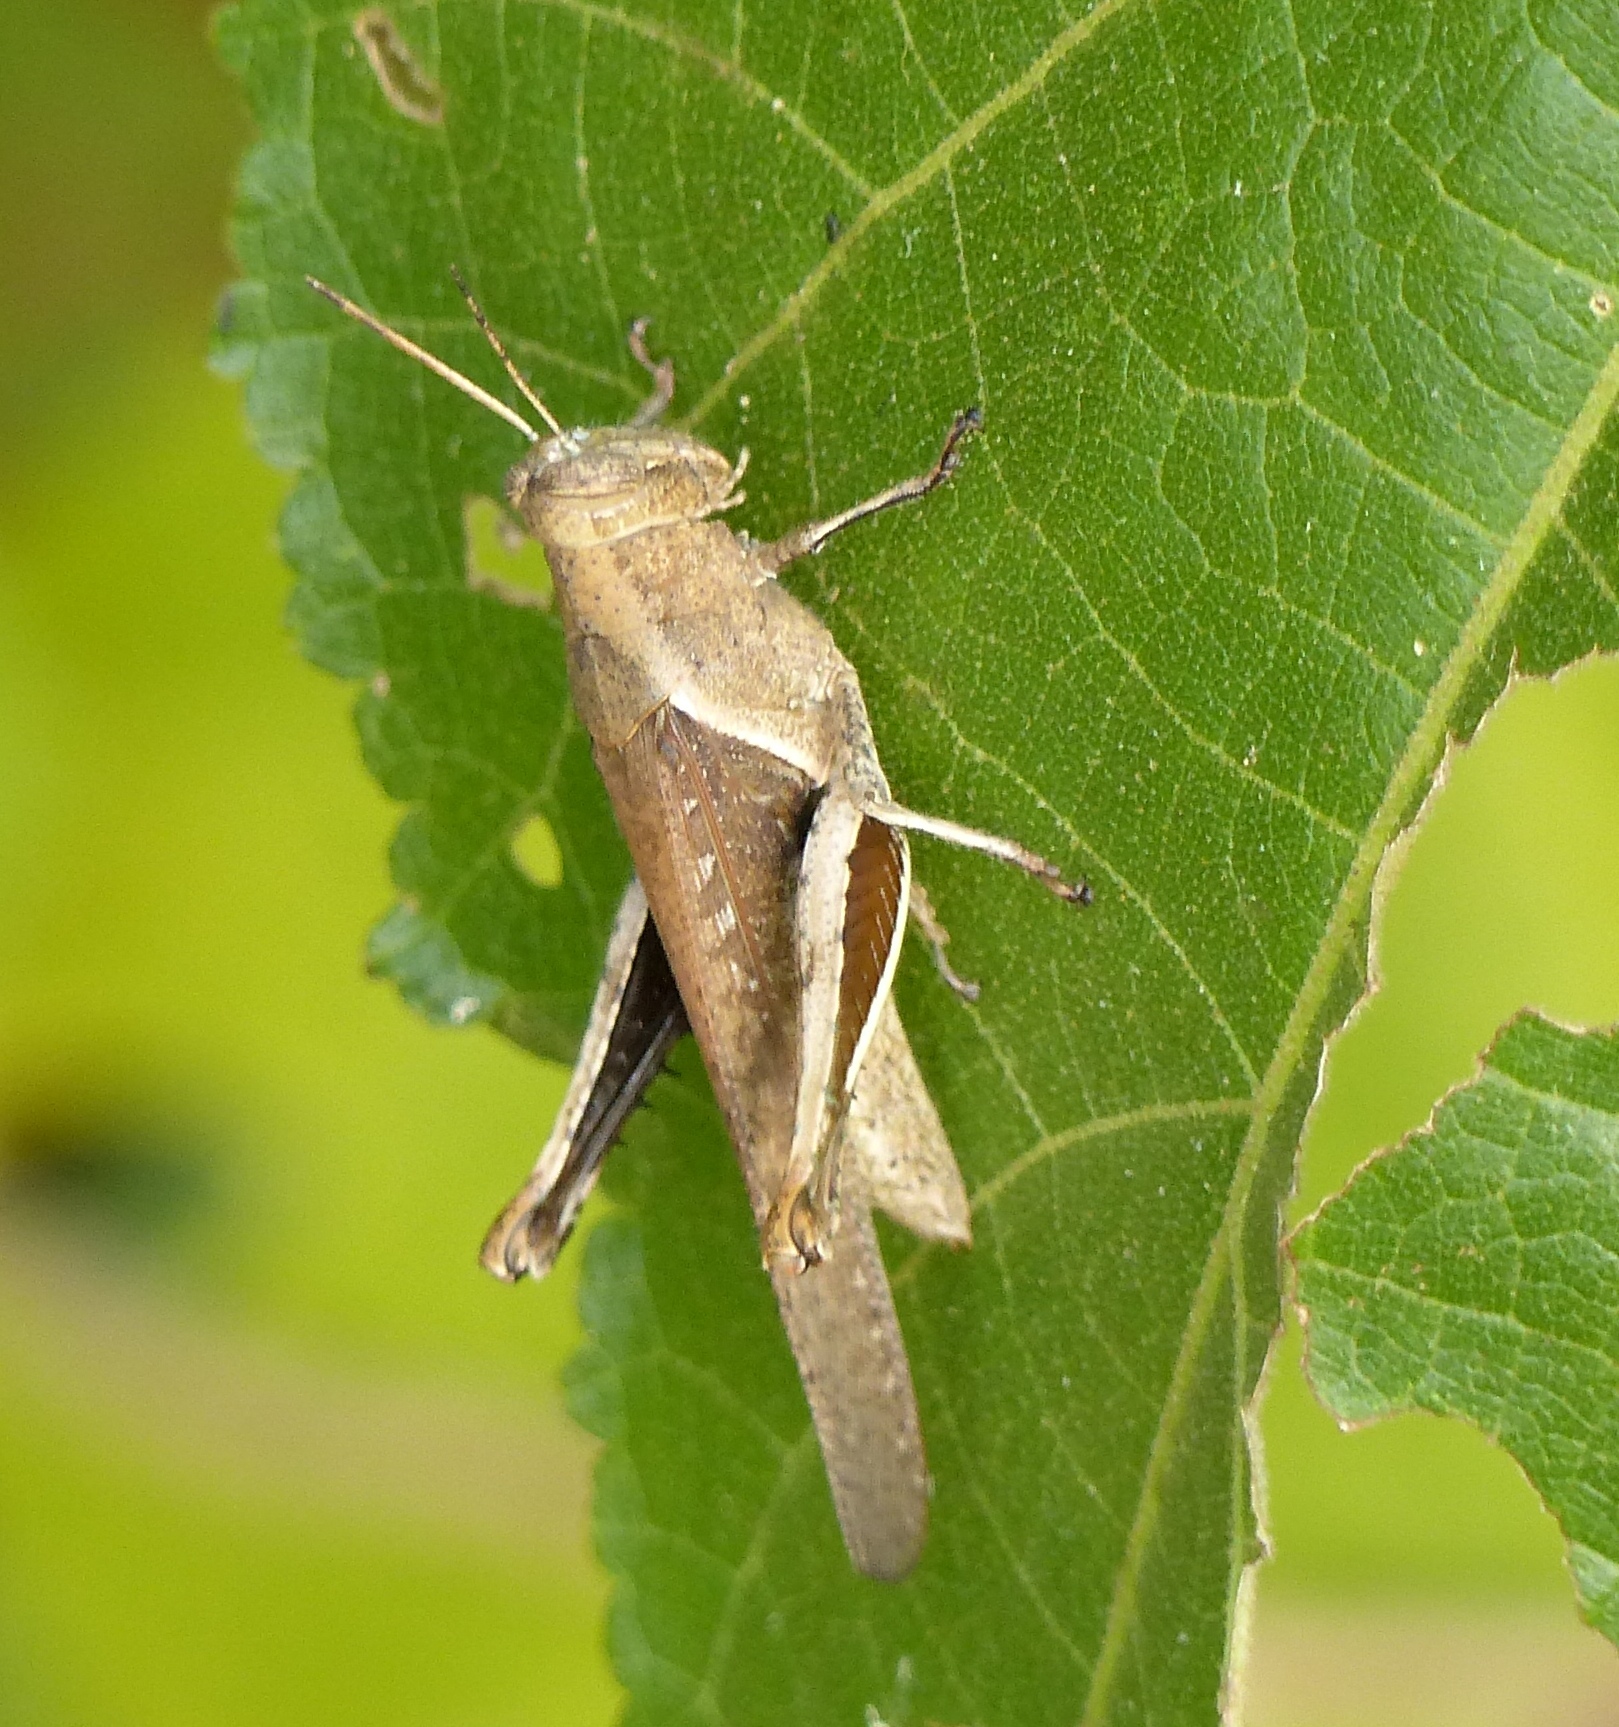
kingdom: Animalia
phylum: Arthropoda
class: Insecta
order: Orthoptera
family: Acrididae
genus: Abracris
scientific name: Abracris flavolineata
